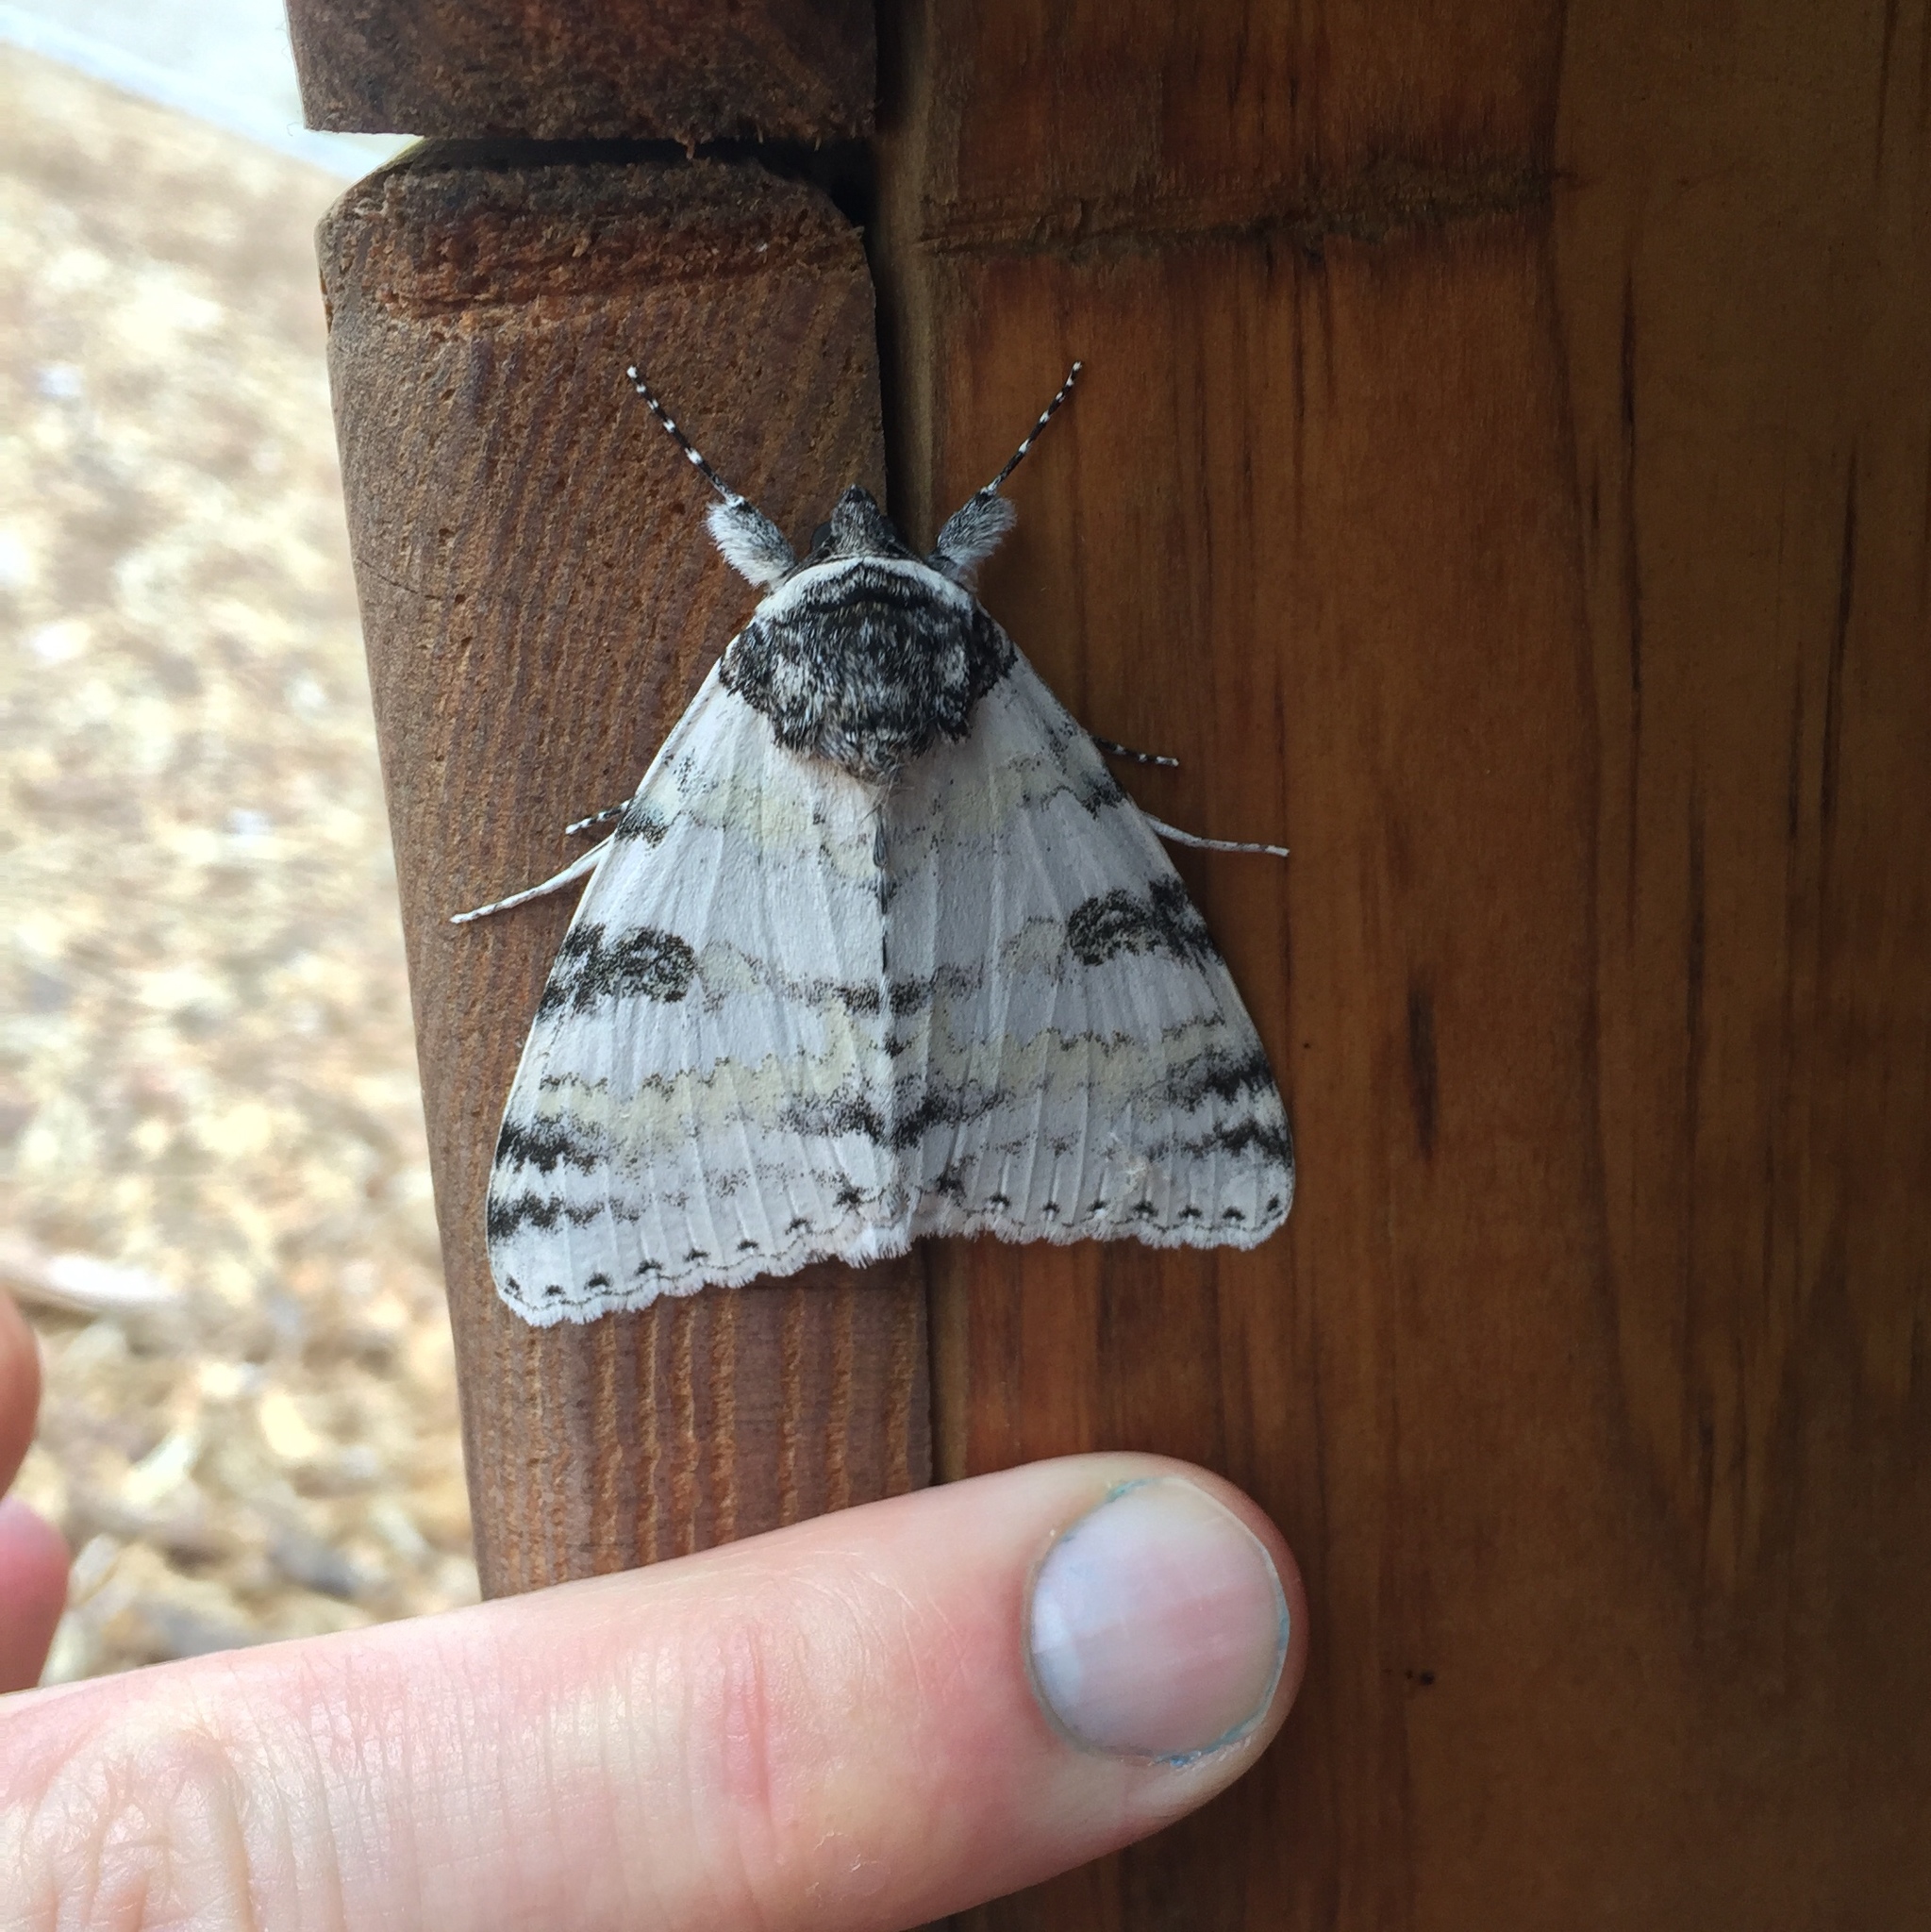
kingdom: Animalia
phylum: Arthropoda
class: Insecta
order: Lepidoptera
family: Erebidae
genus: Catocala
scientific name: Catocala relicta
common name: White underwing
